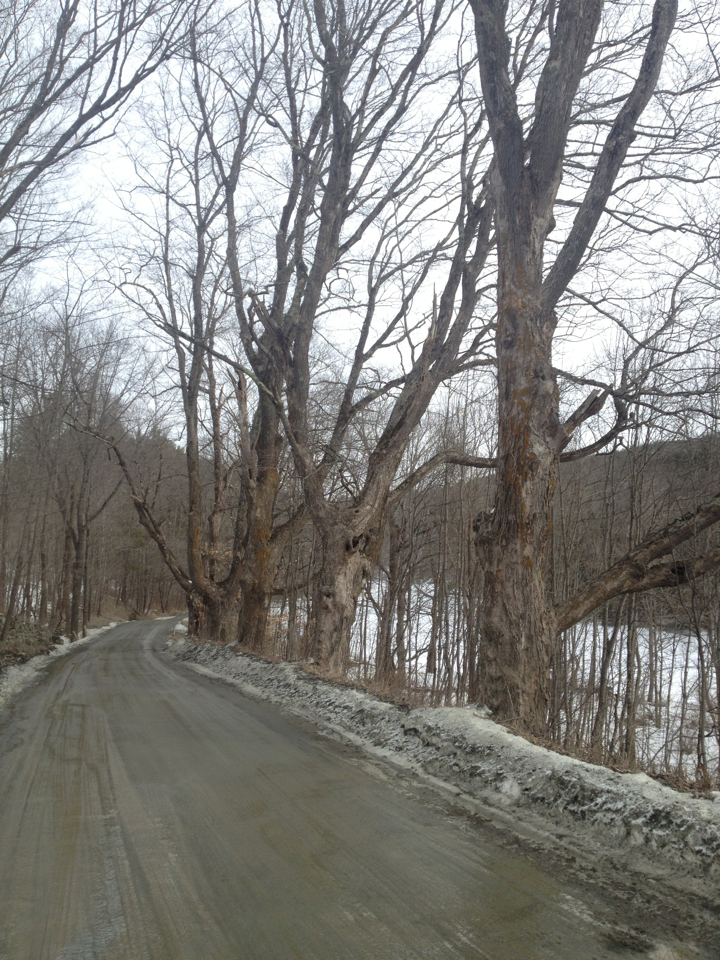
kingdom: Plantae
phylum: Tracheophyta
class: Magnoliopsida
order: Sapindales
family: Sapindaceae
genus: Acer
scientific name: Acer saccharum
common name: Sugar maple
